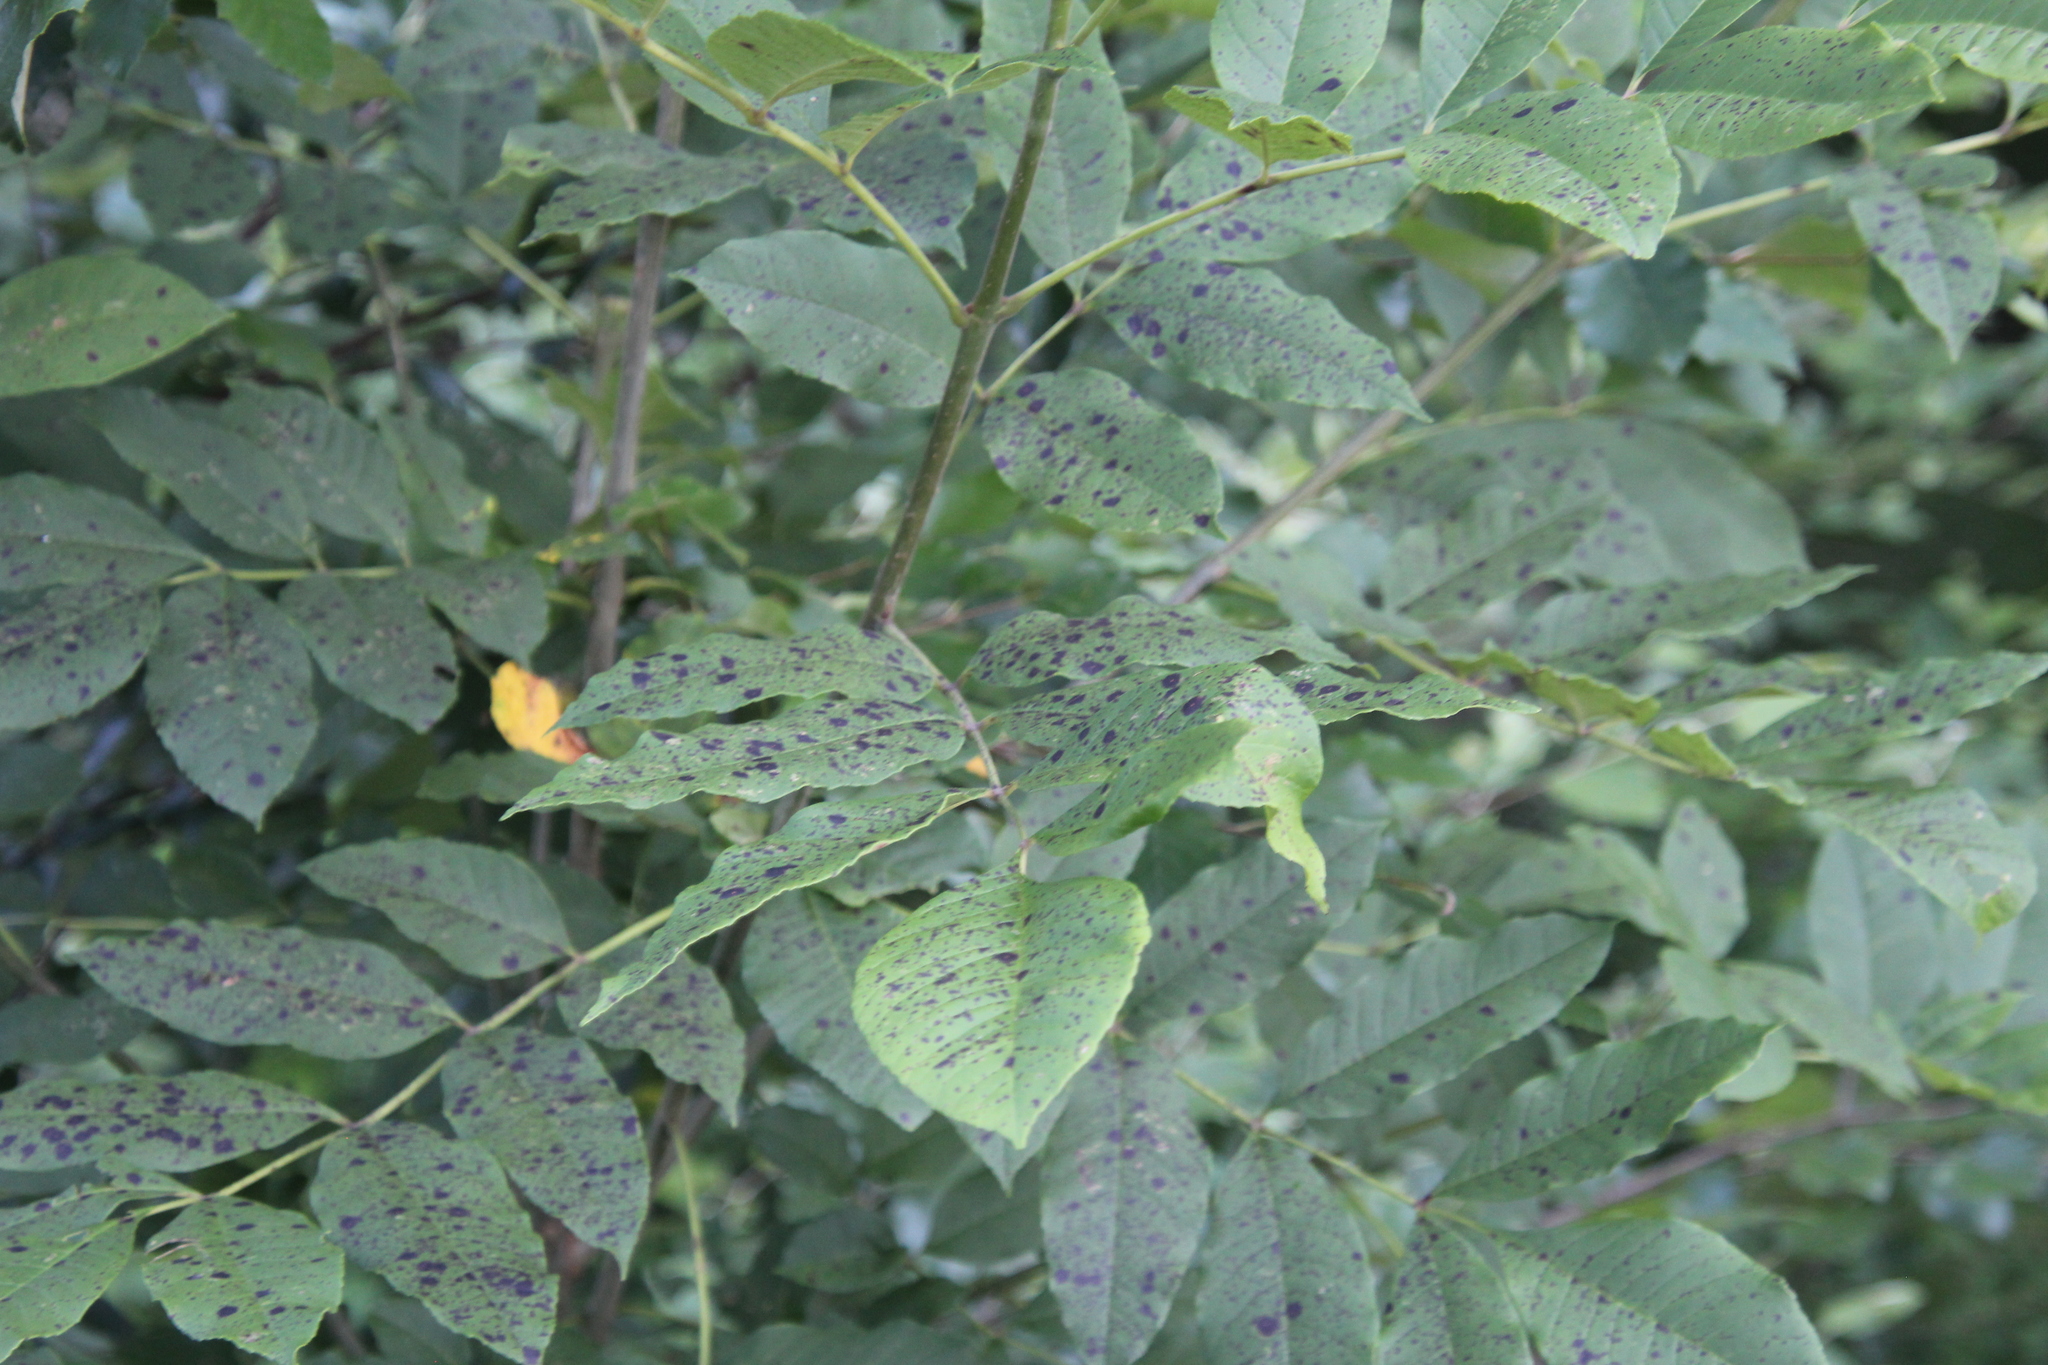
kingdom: Fungi
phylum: Ascomycota
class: Dothideomycetes
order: Mycosphaerellales
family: Mycosphaerellaceae
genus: Mycosphaerella
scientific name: Mycosphaerella effigurata
